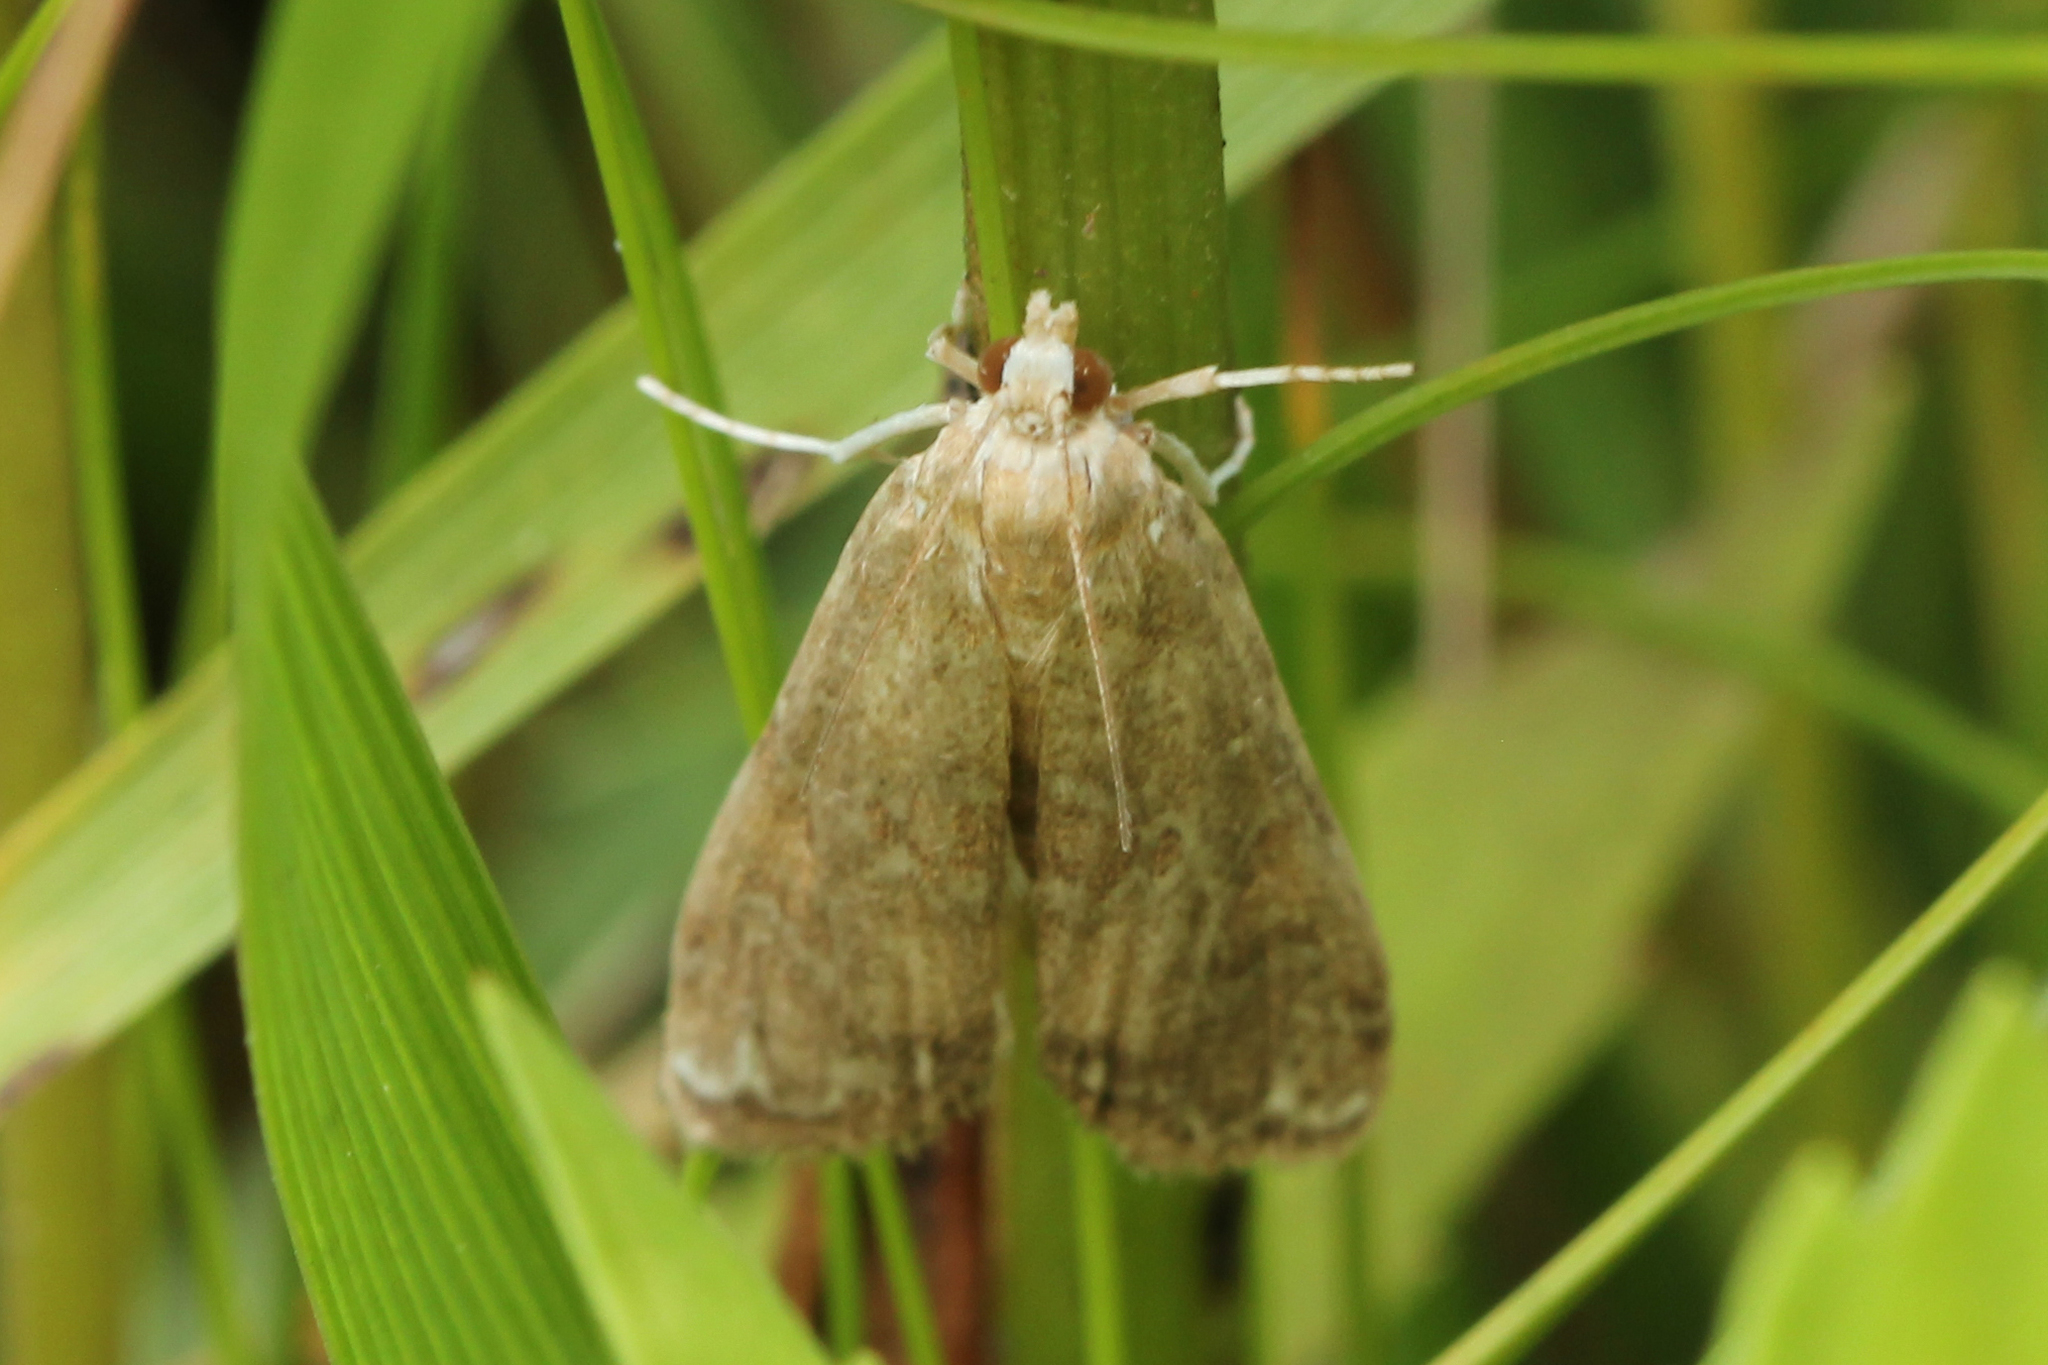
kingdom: Animalia
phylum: Arthropoda
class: Insecta
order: Lepidoptera
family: Crambidae
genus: Elophila
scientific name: Elophila gyralis
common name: Waterlily borer moth
